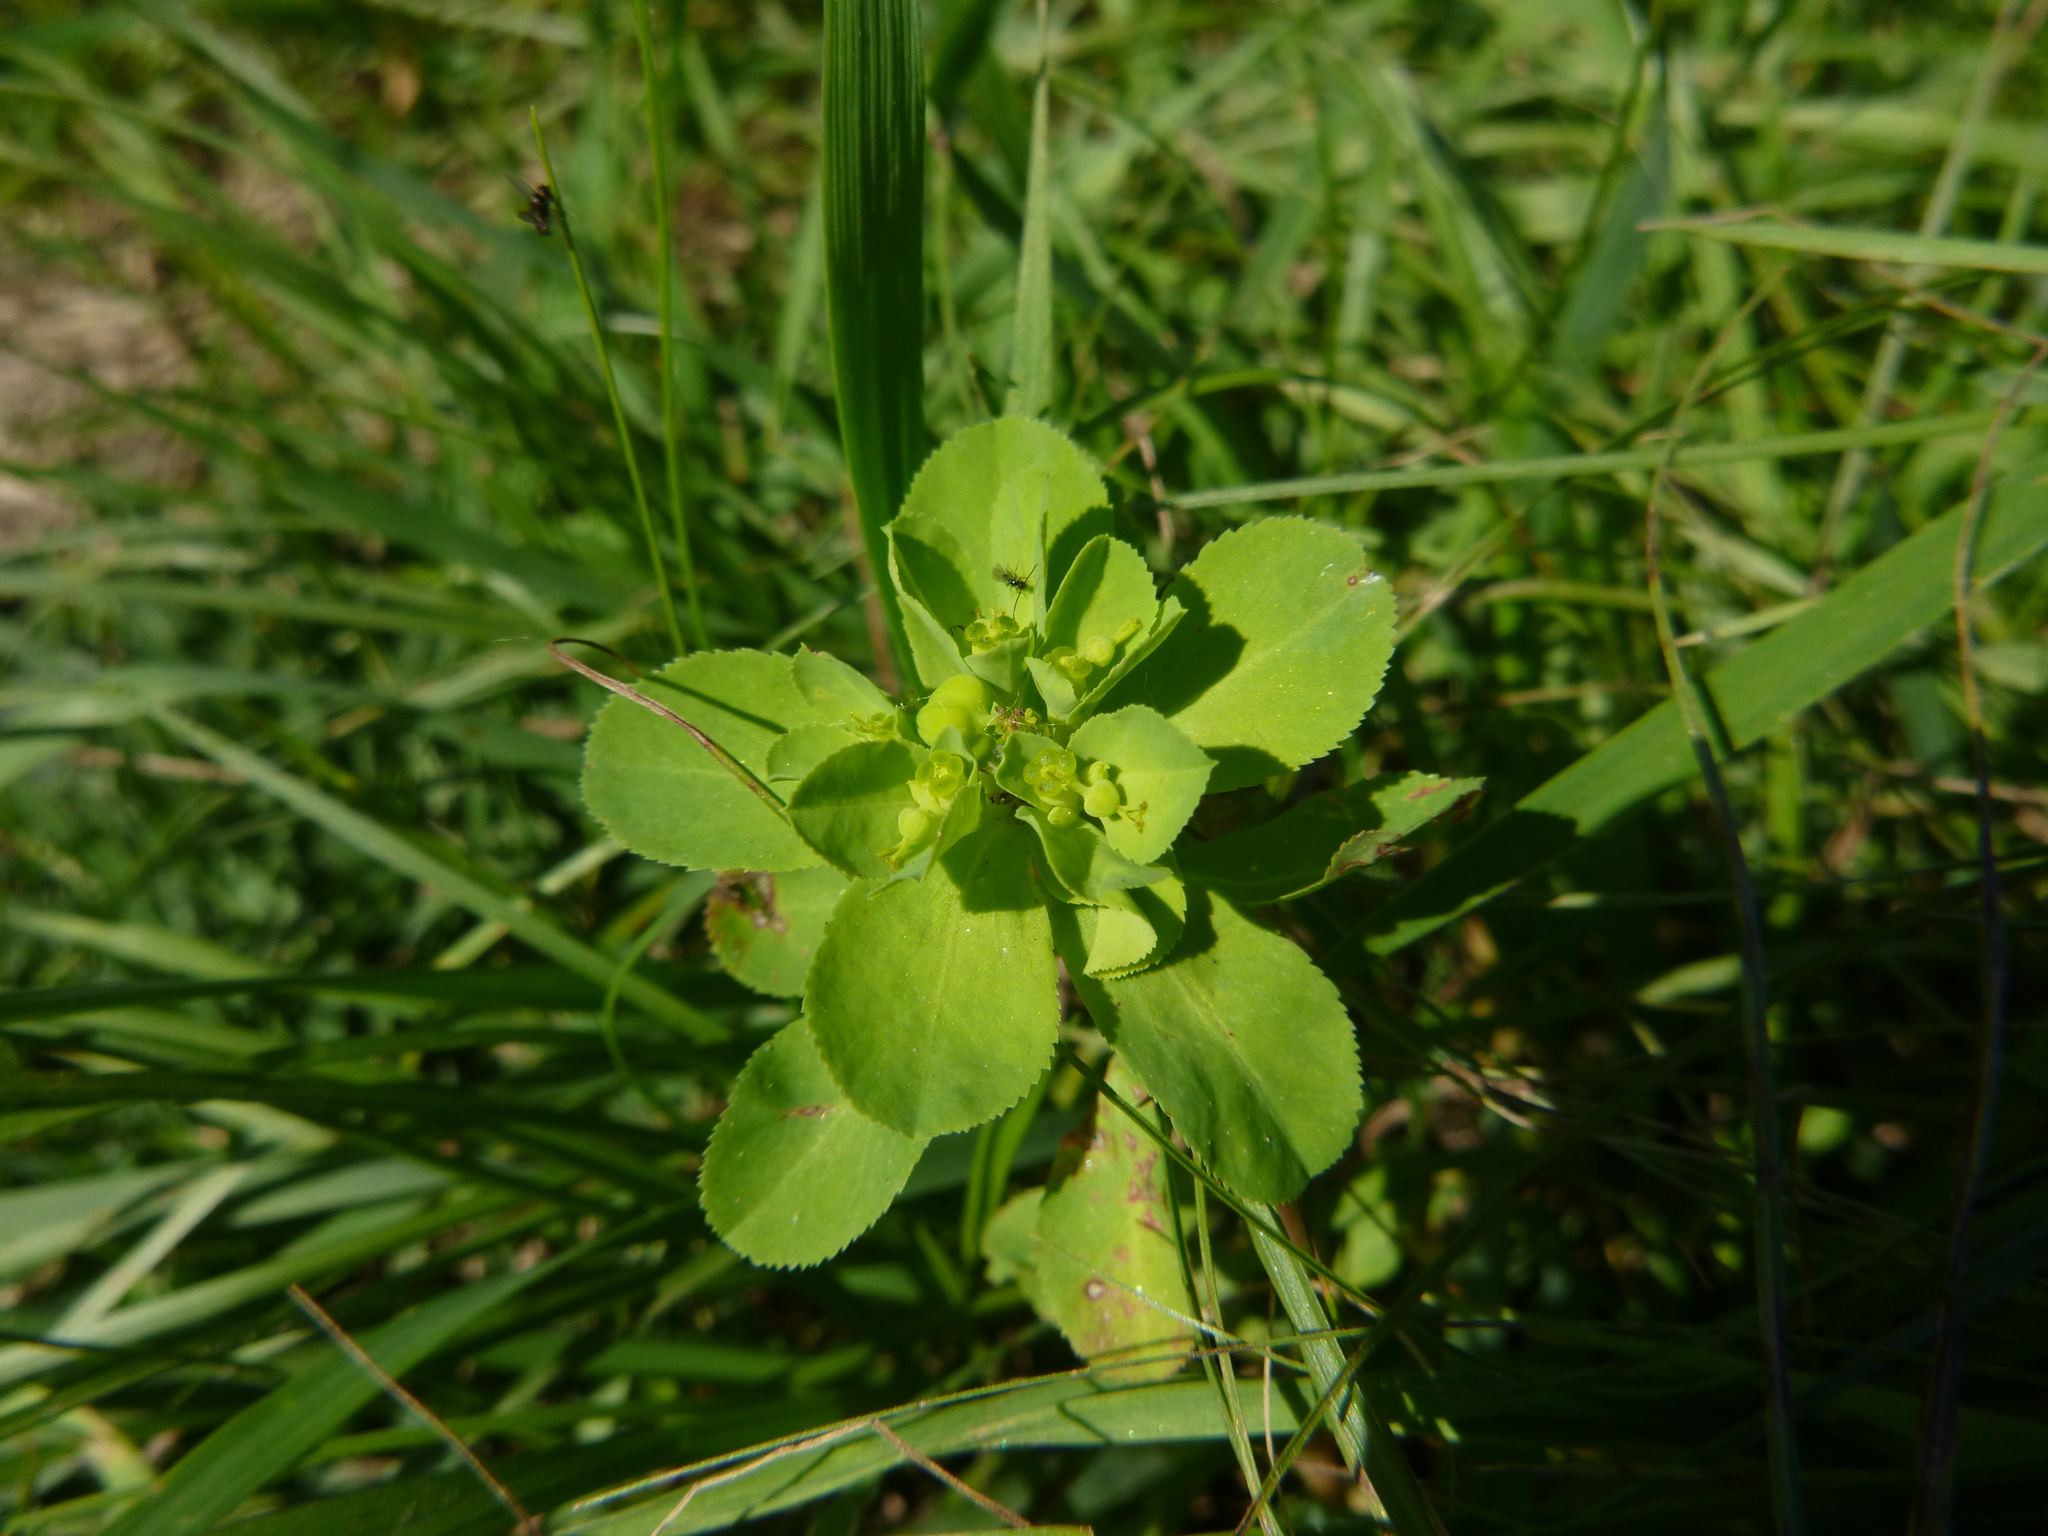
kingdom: Plantae
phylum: Tracheophyta
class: Magnoliopsida
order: Malpighiales
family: Euphorbiaceae
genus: Euphorbia
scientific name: Euphorbia helioscopia
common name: Sun spurge
